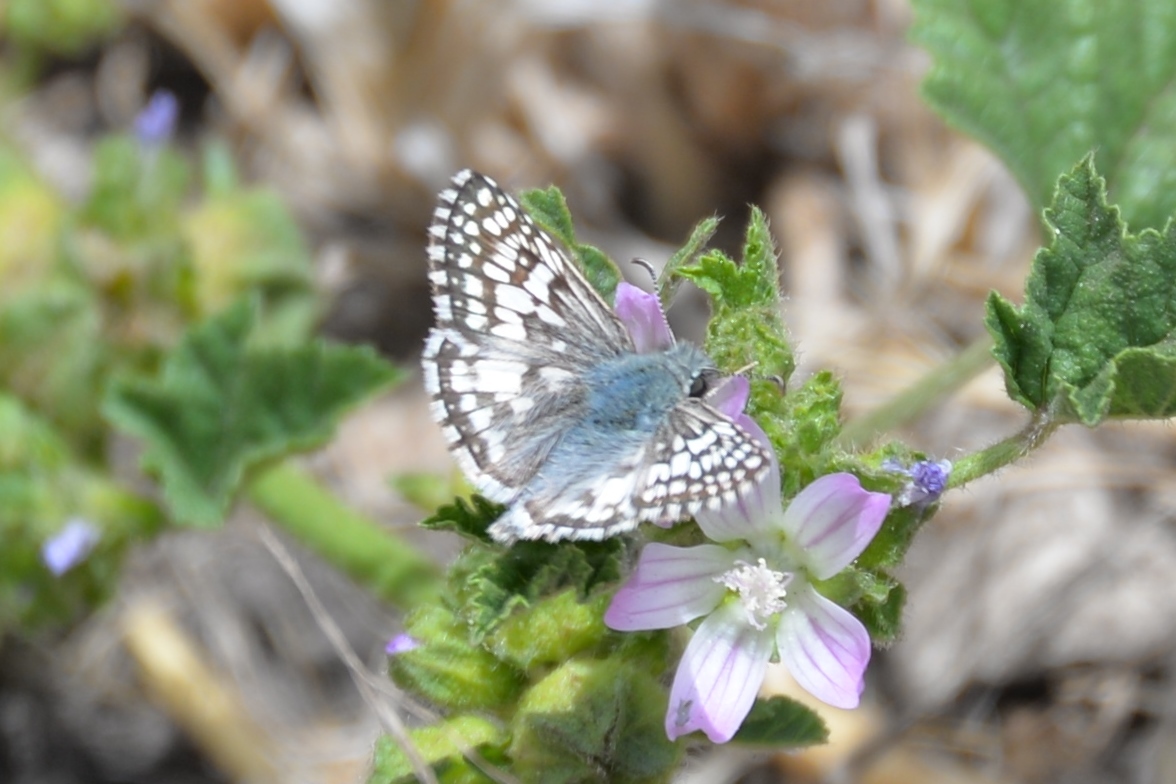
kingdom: Animalia
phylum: Arthropoda
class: Insecta
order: Lepidoptera
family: Hesperiidae
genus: Burnsius
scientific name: Burnsius albezens
